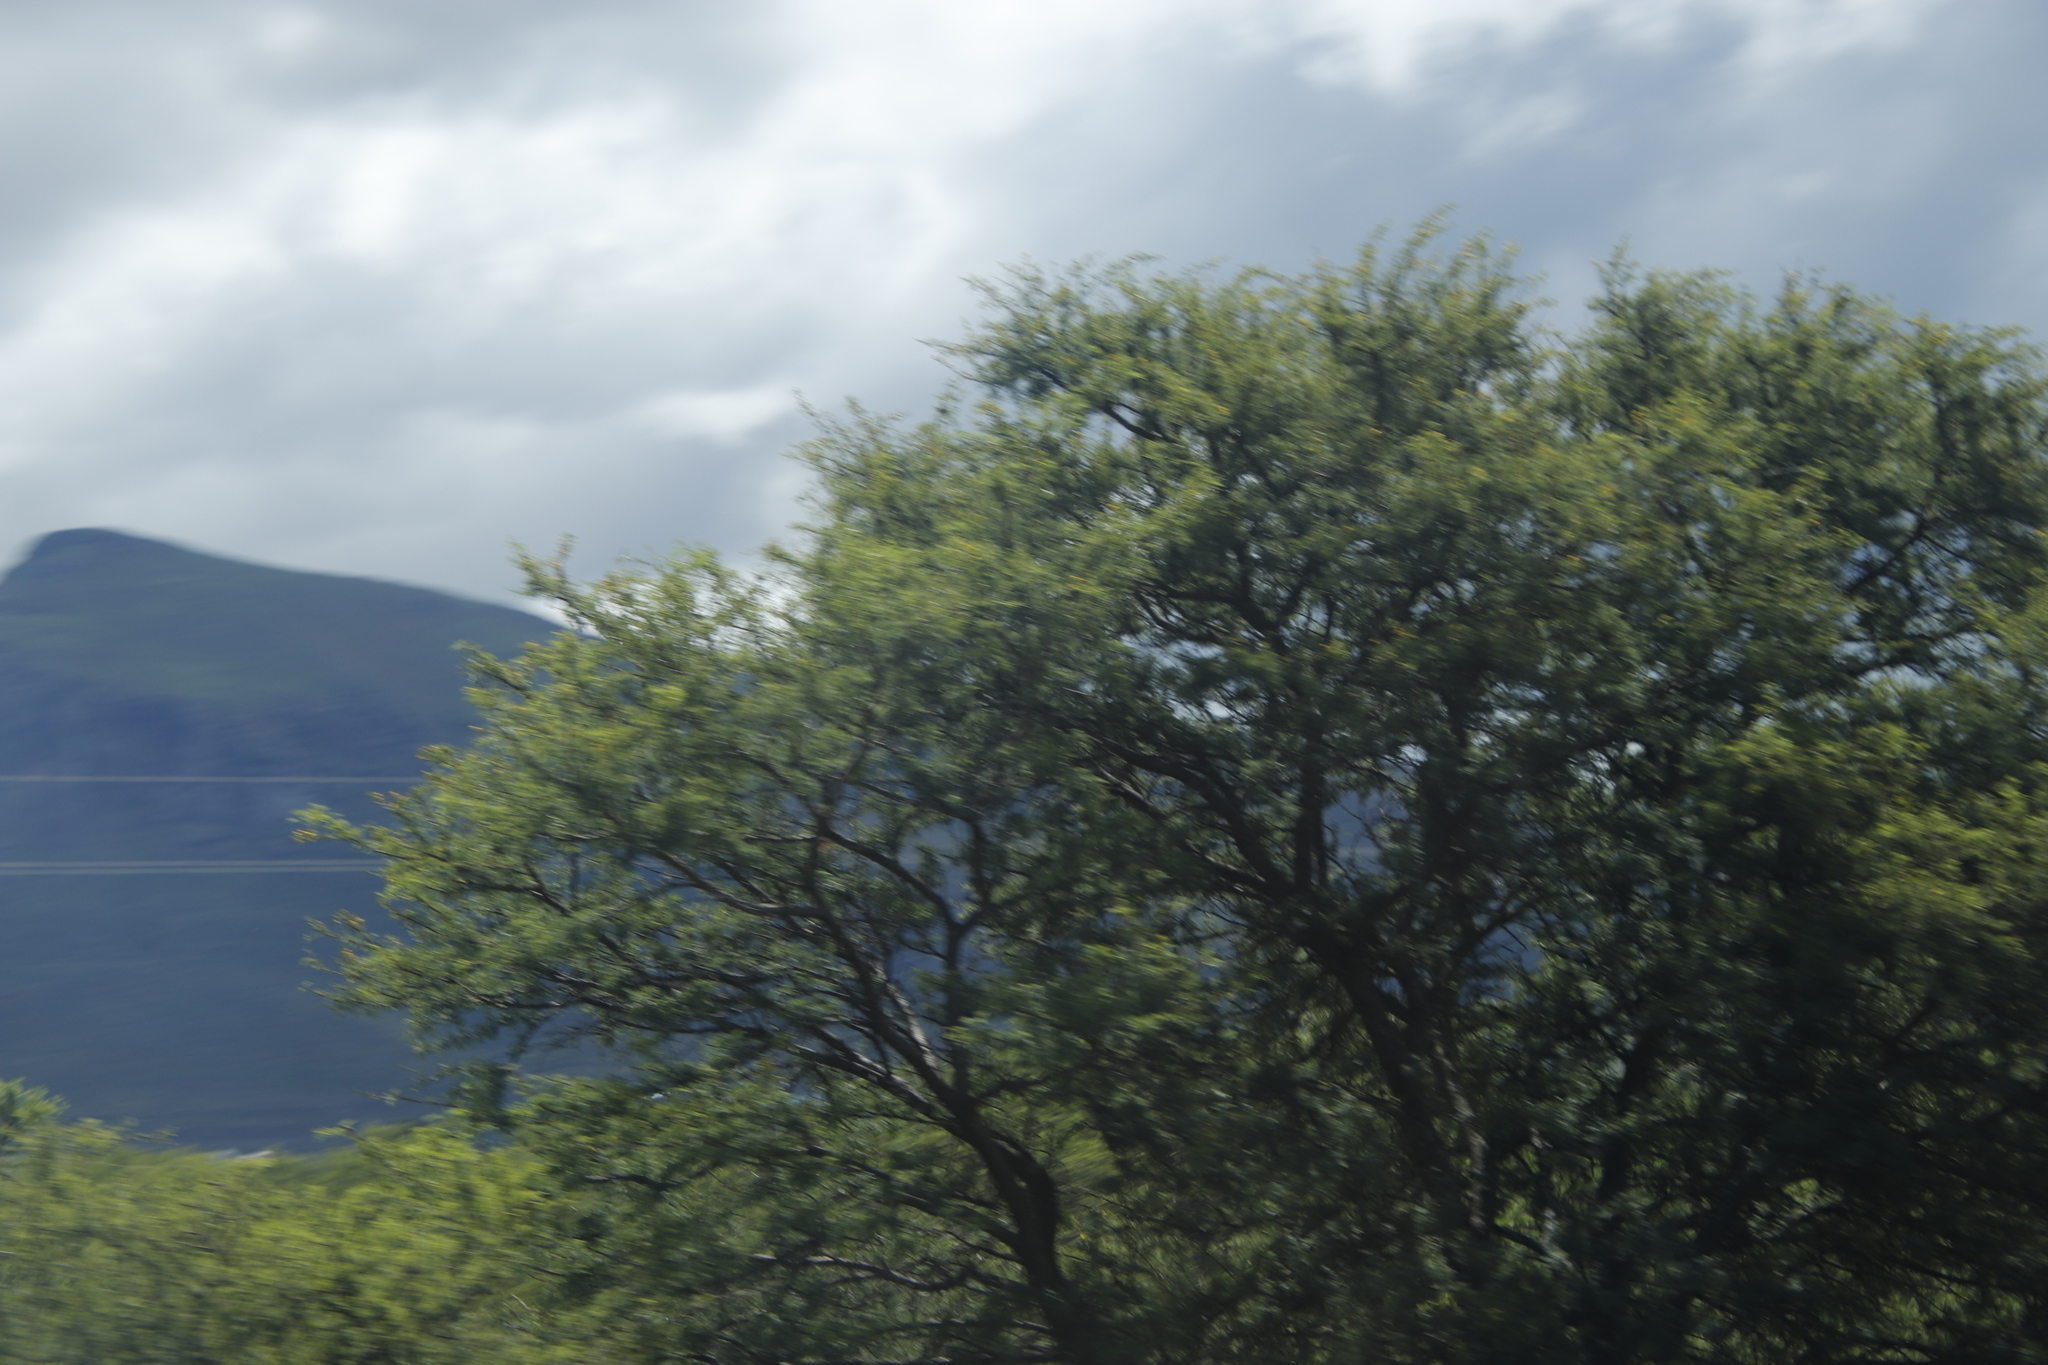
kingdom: Plantae
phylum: Tracheophyta
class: Magnoliopsida
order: Fabales
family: Fabaceae
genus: Vachellia
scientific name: Vachellia karroo
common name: Sweet thorn
